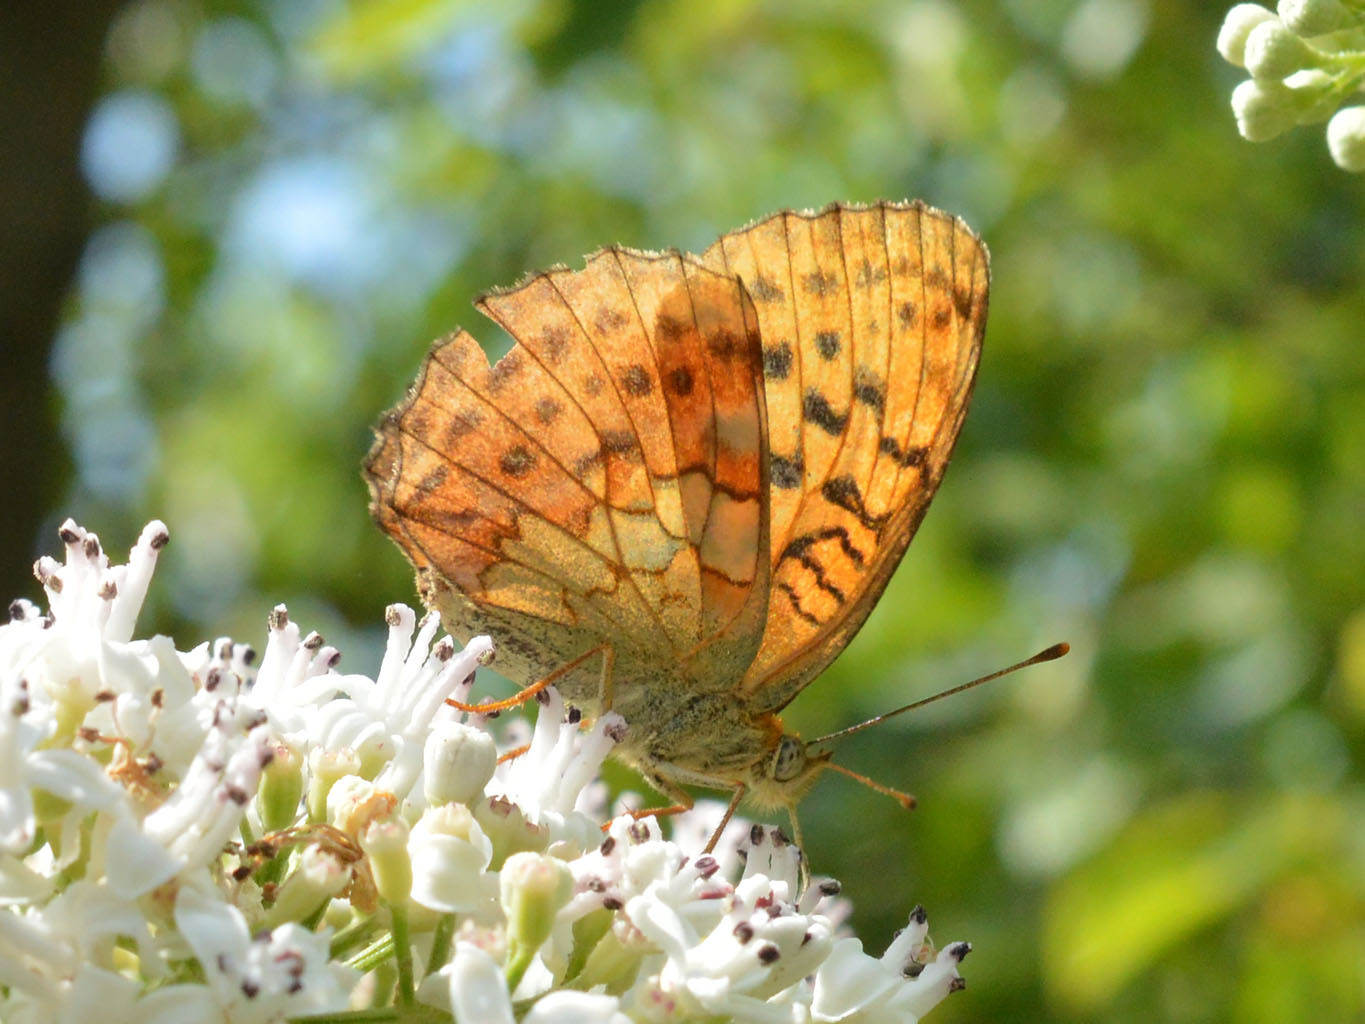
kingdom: Animalia
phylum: Arthropoda
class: Insecta
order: Lepidoptera
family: Nymphalidae
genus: Brenthis
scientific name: Brenthis daphne
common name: Marbled fritillary
